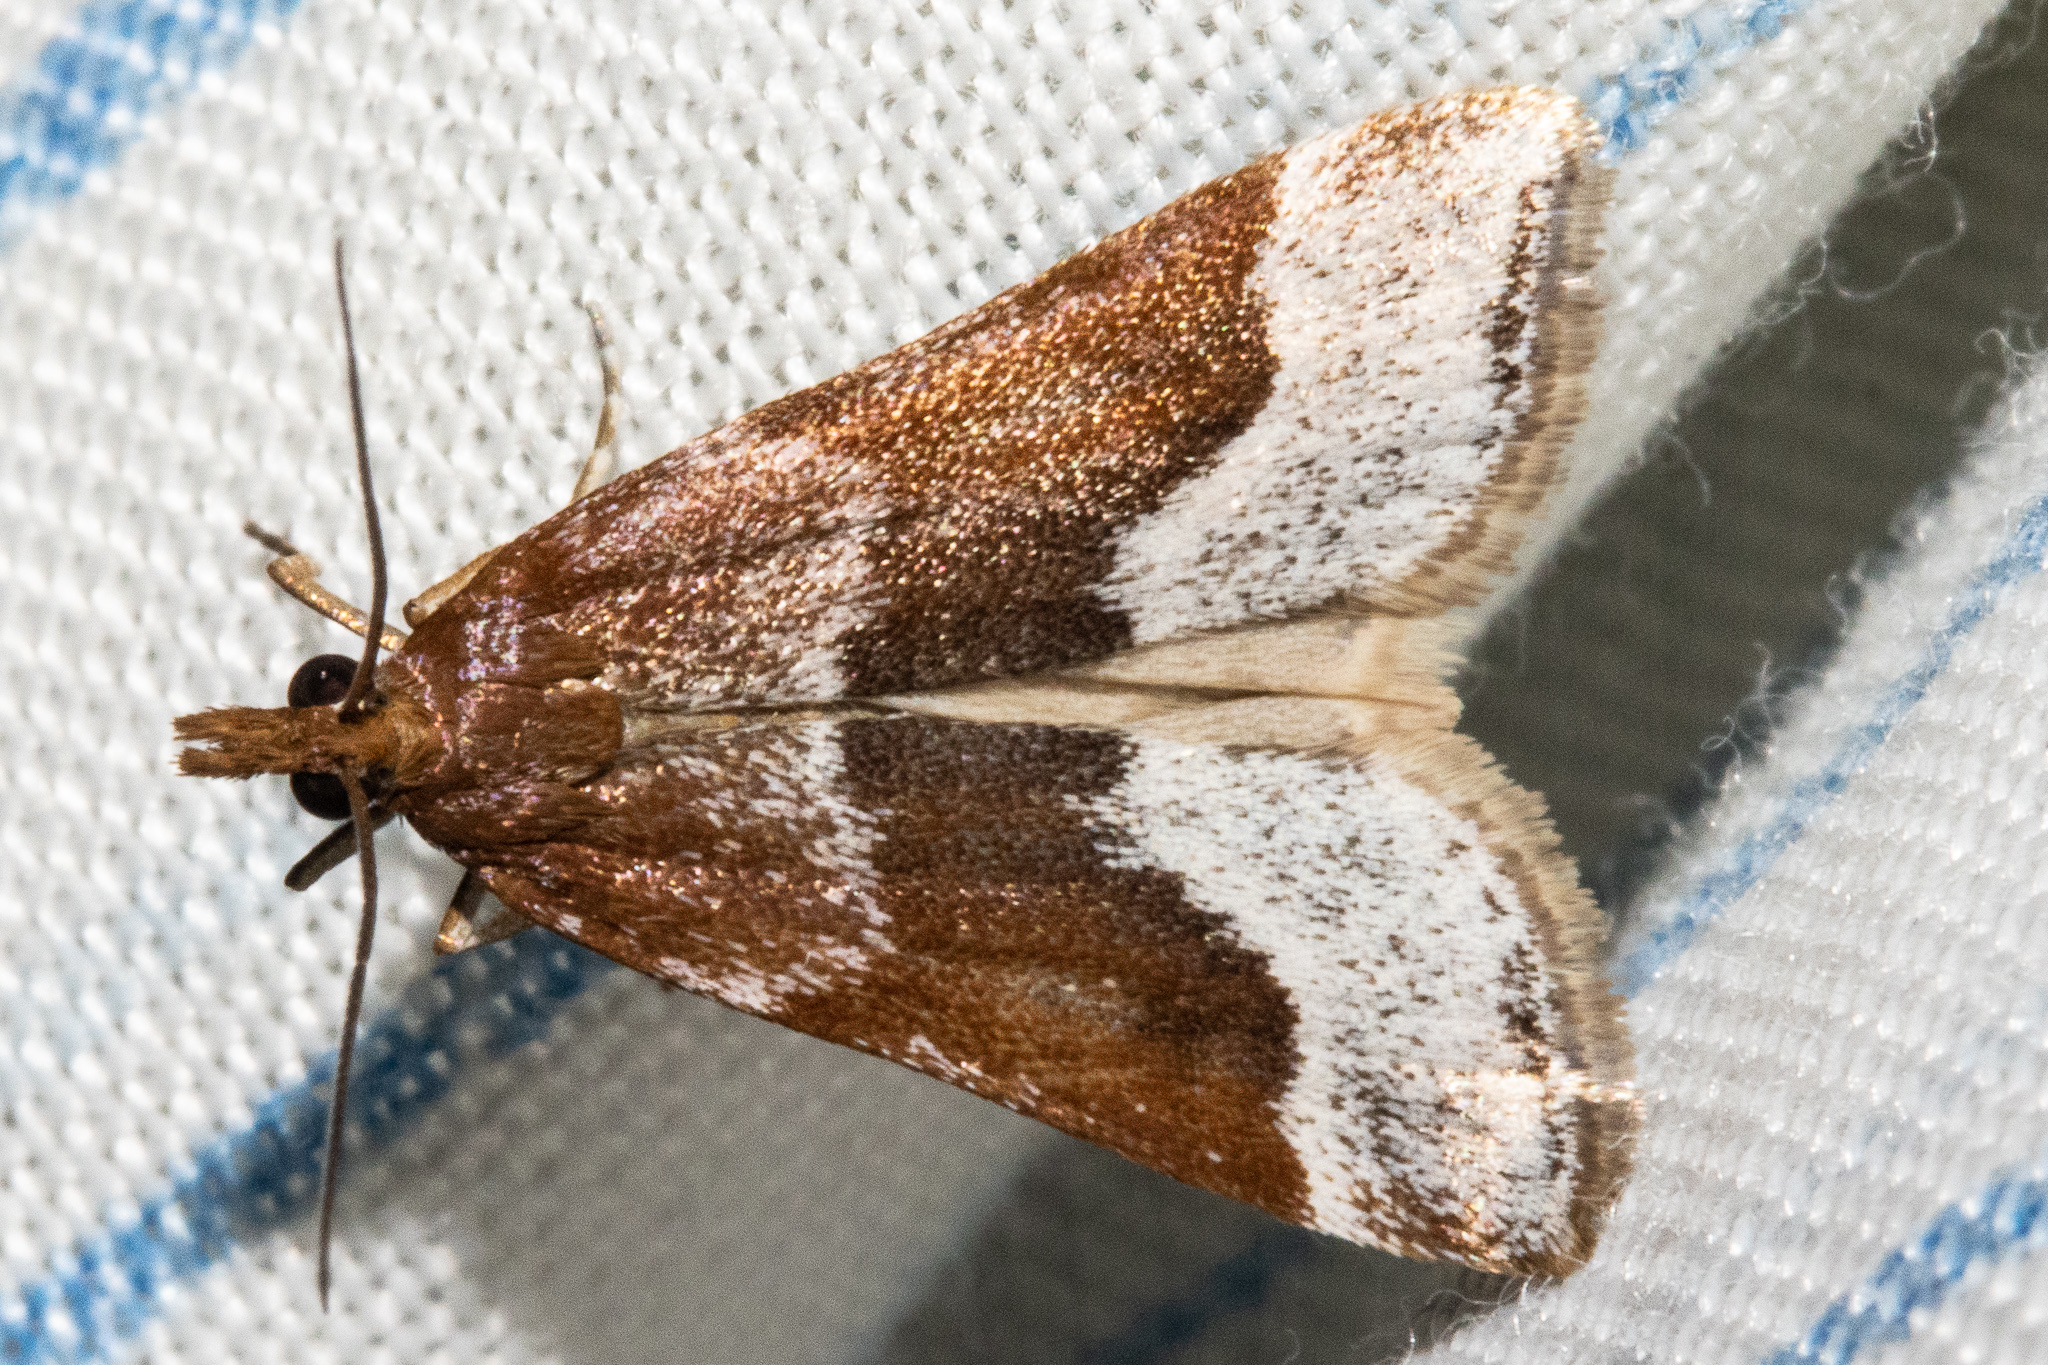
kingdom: Animalia
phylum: Arthropoda
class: Insecta
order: Lepidoptera
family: Crambidae
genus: Eudonia
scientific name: Eudonia feredayi
